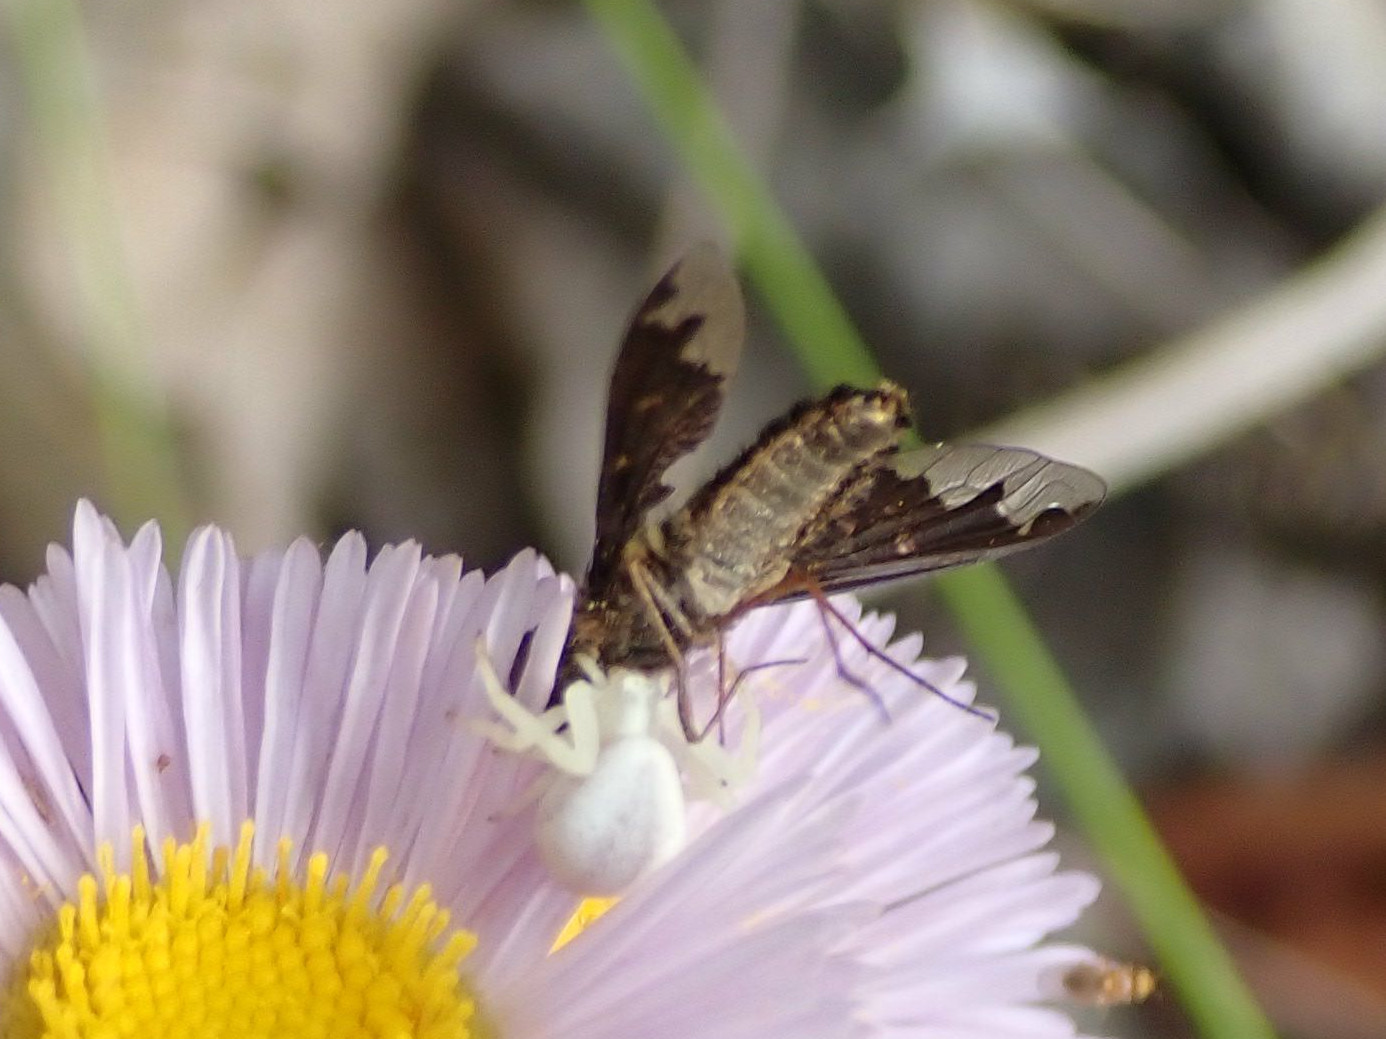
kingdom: Animalia
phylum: Arthropoda
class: Arachnida
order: Araneae
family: Thomisidae
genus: Misumena
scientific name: Misumena vatia
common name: Goldenrod crab spider
